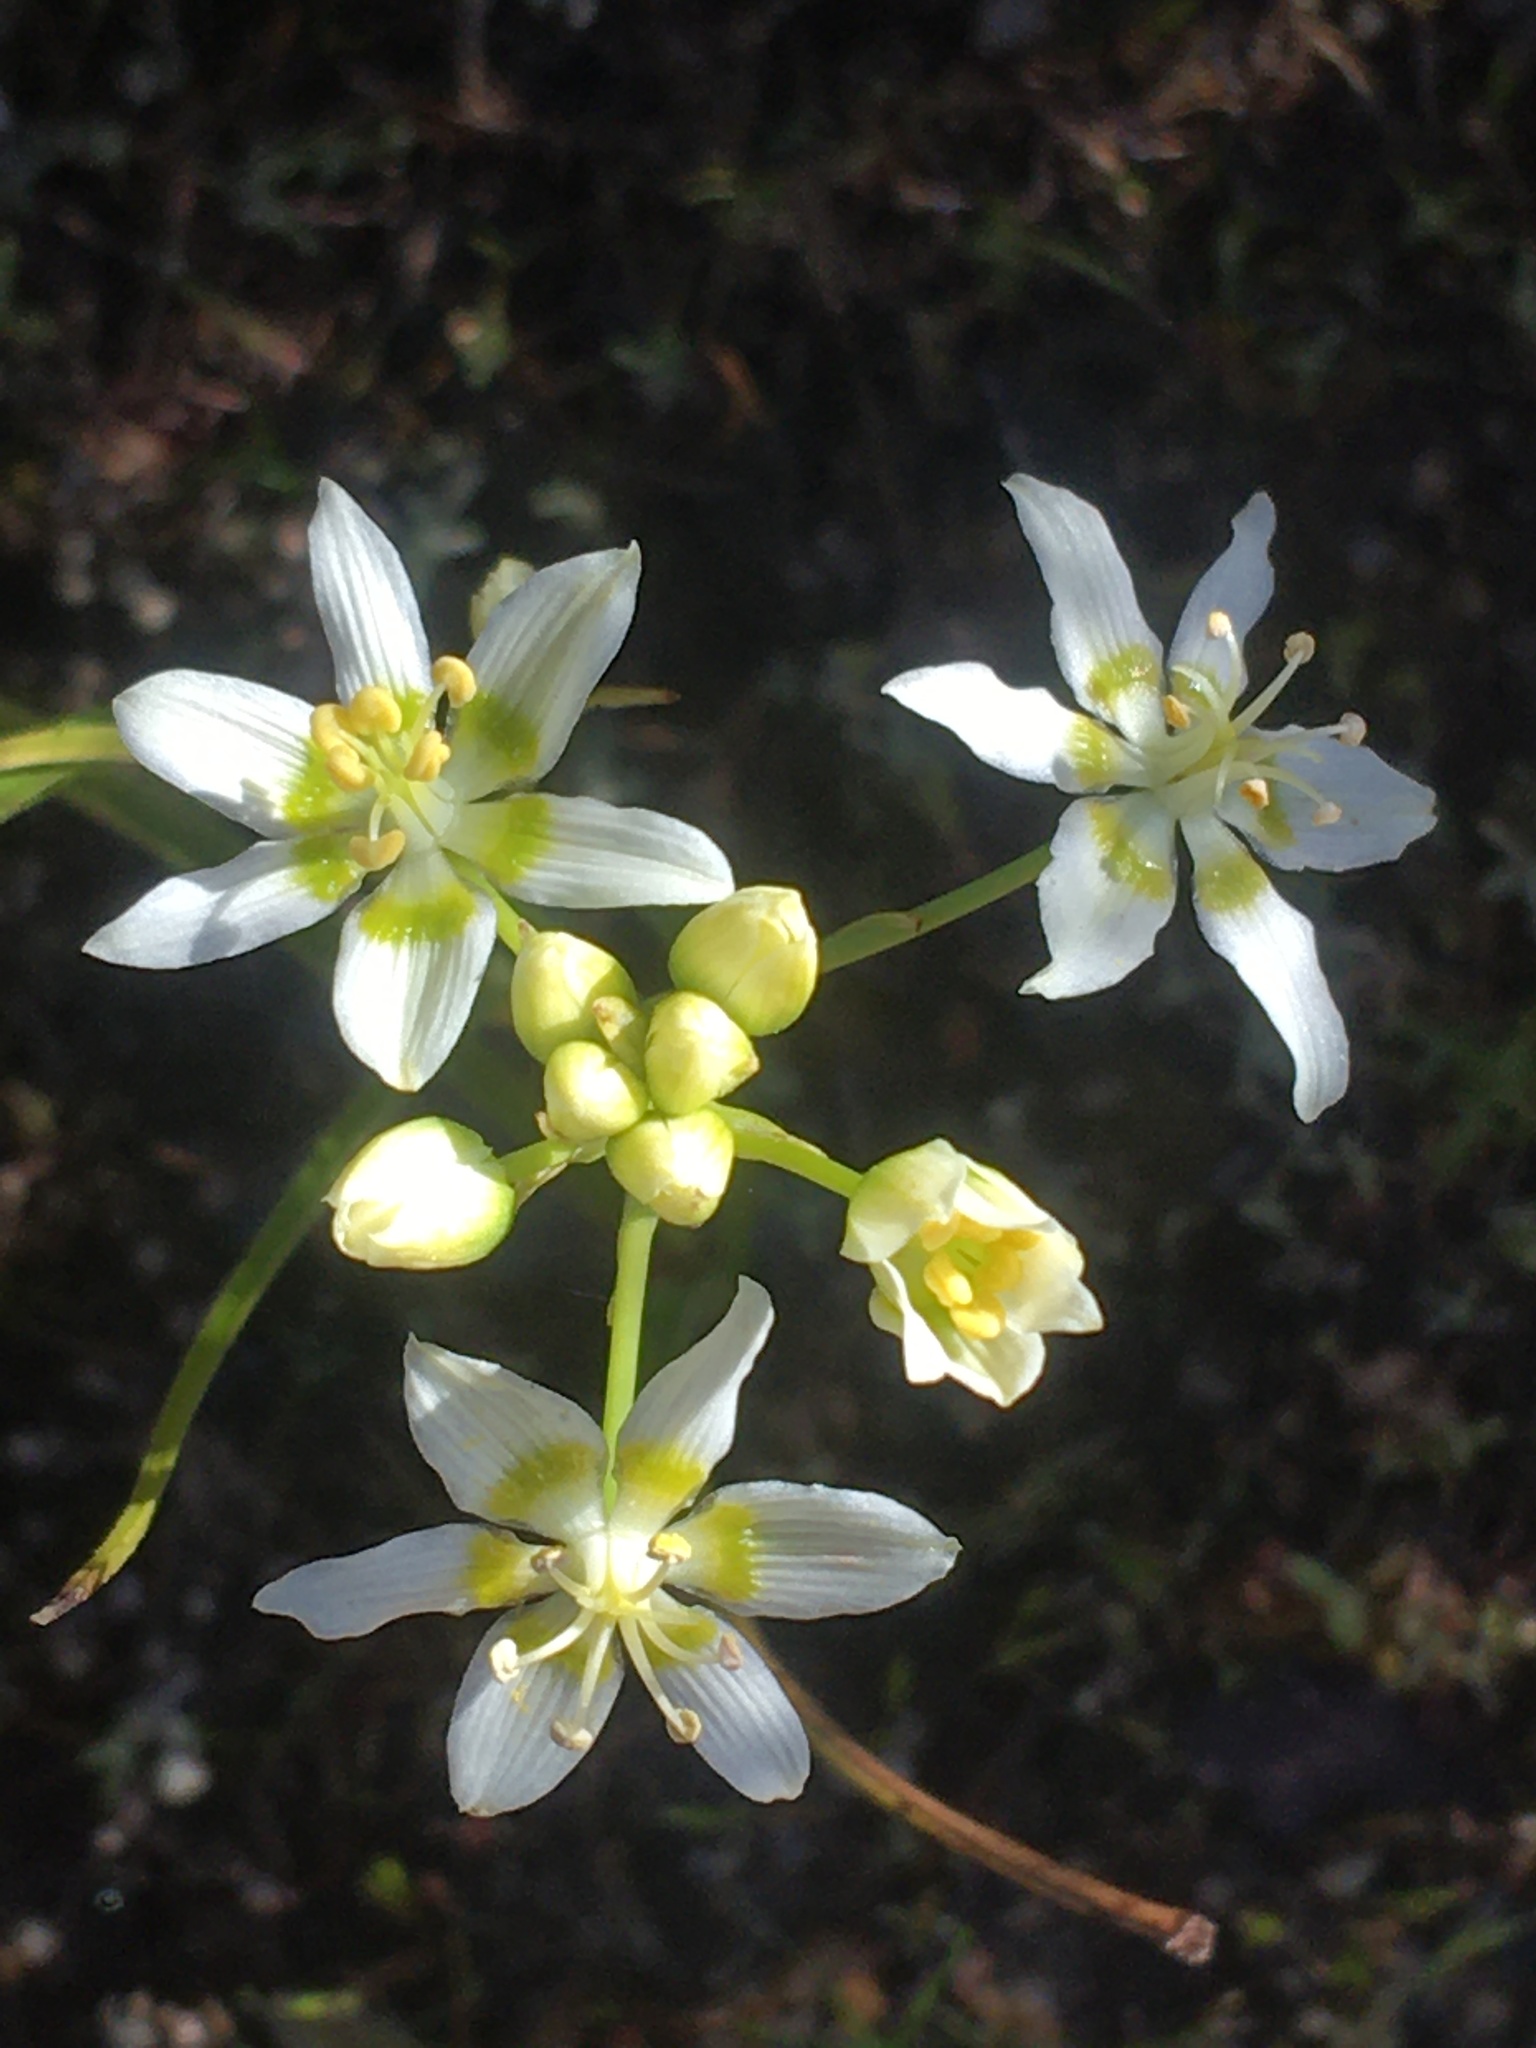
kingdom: Plantae
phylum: Tracheophyta
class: Liliopsida
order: Liliales
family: Melanthiaceae
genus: Toxicoscordion
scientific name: Toxicoscordion fremontii
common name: Fremont's death camas
